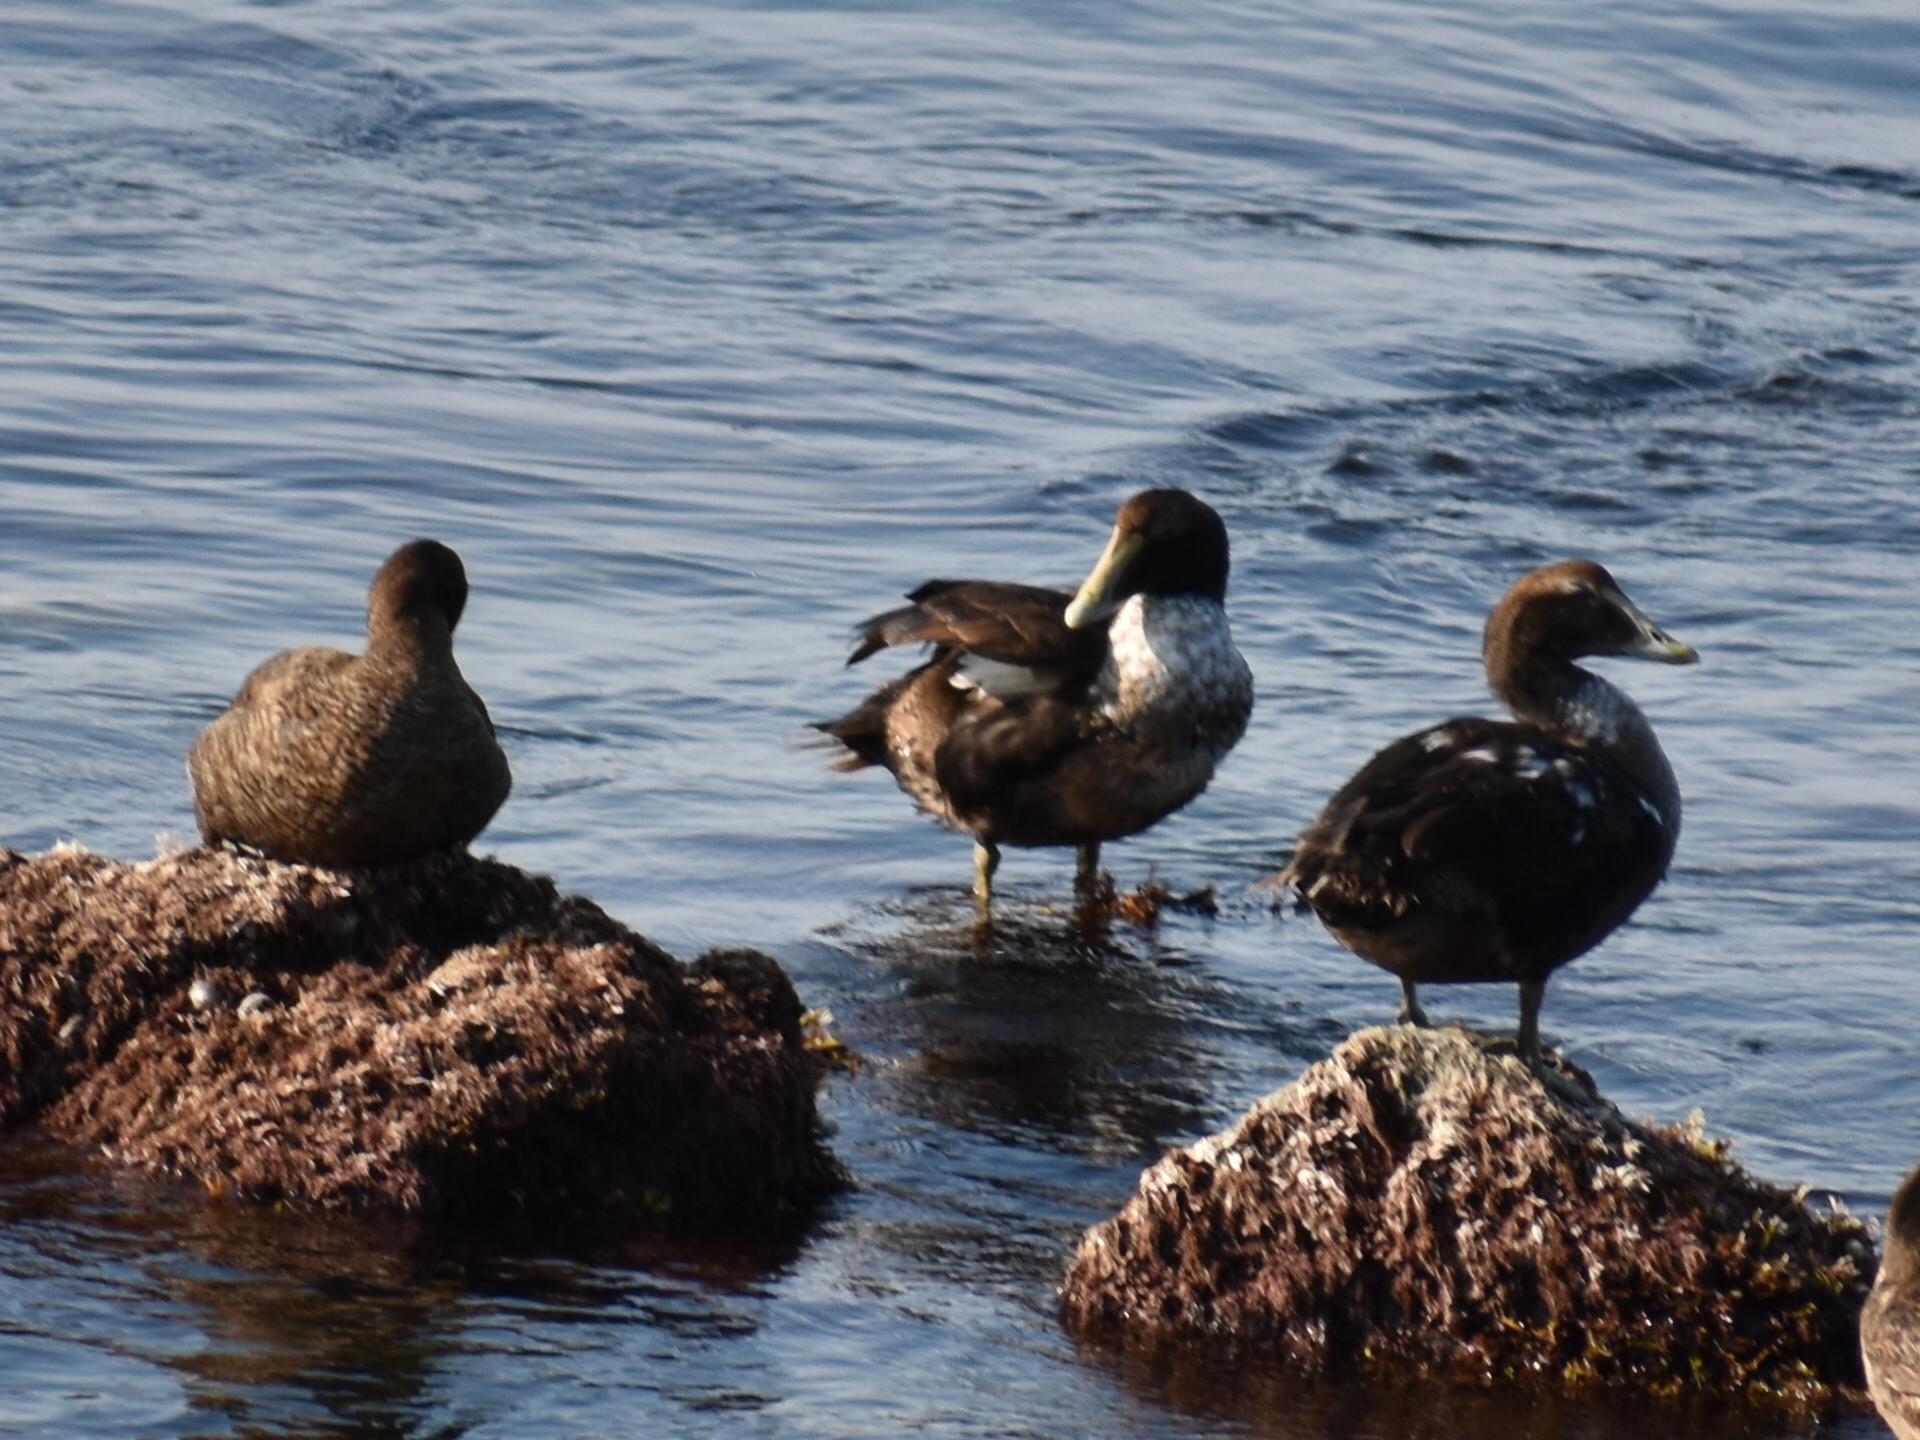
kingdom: Animalia
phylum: Chordata
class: Aves
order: Anseriformes
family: Anatidae
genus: Somateria
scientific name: Somateria mollissima
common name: Common eider
